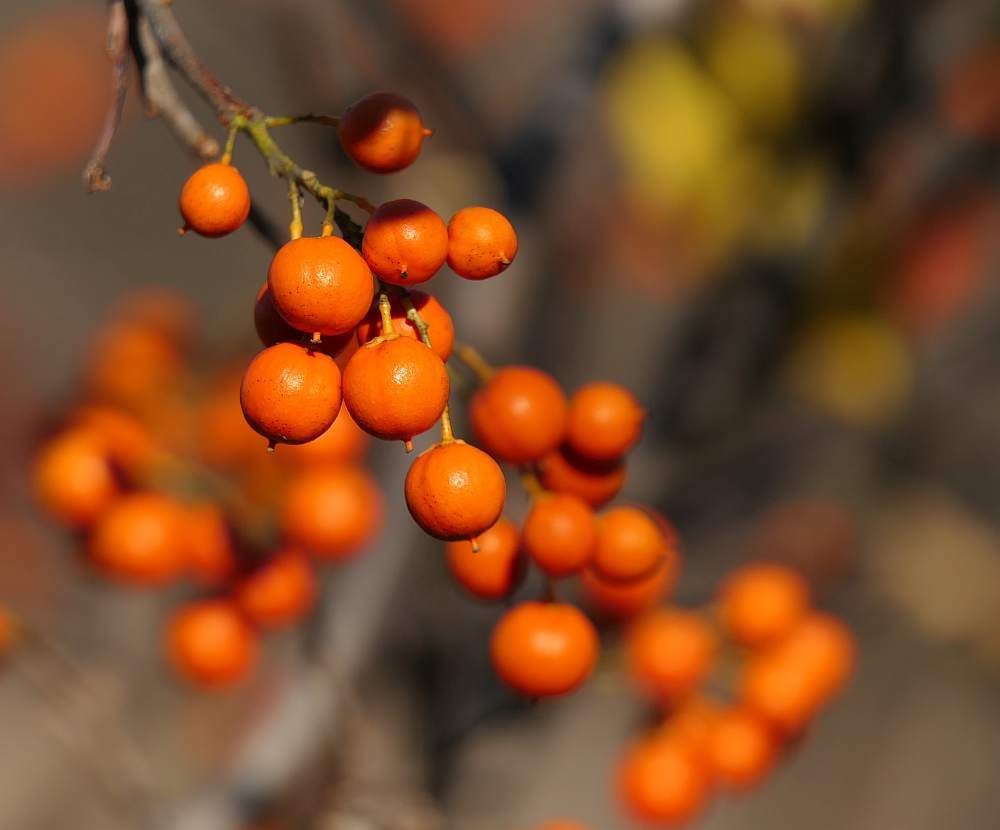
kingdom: Plantae
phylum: Tracheophyta
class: Magnoliopsida
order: Celastrales
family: Celastraceae
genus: Celastrus
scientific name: Celastrus scandens
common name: American bittersweet
